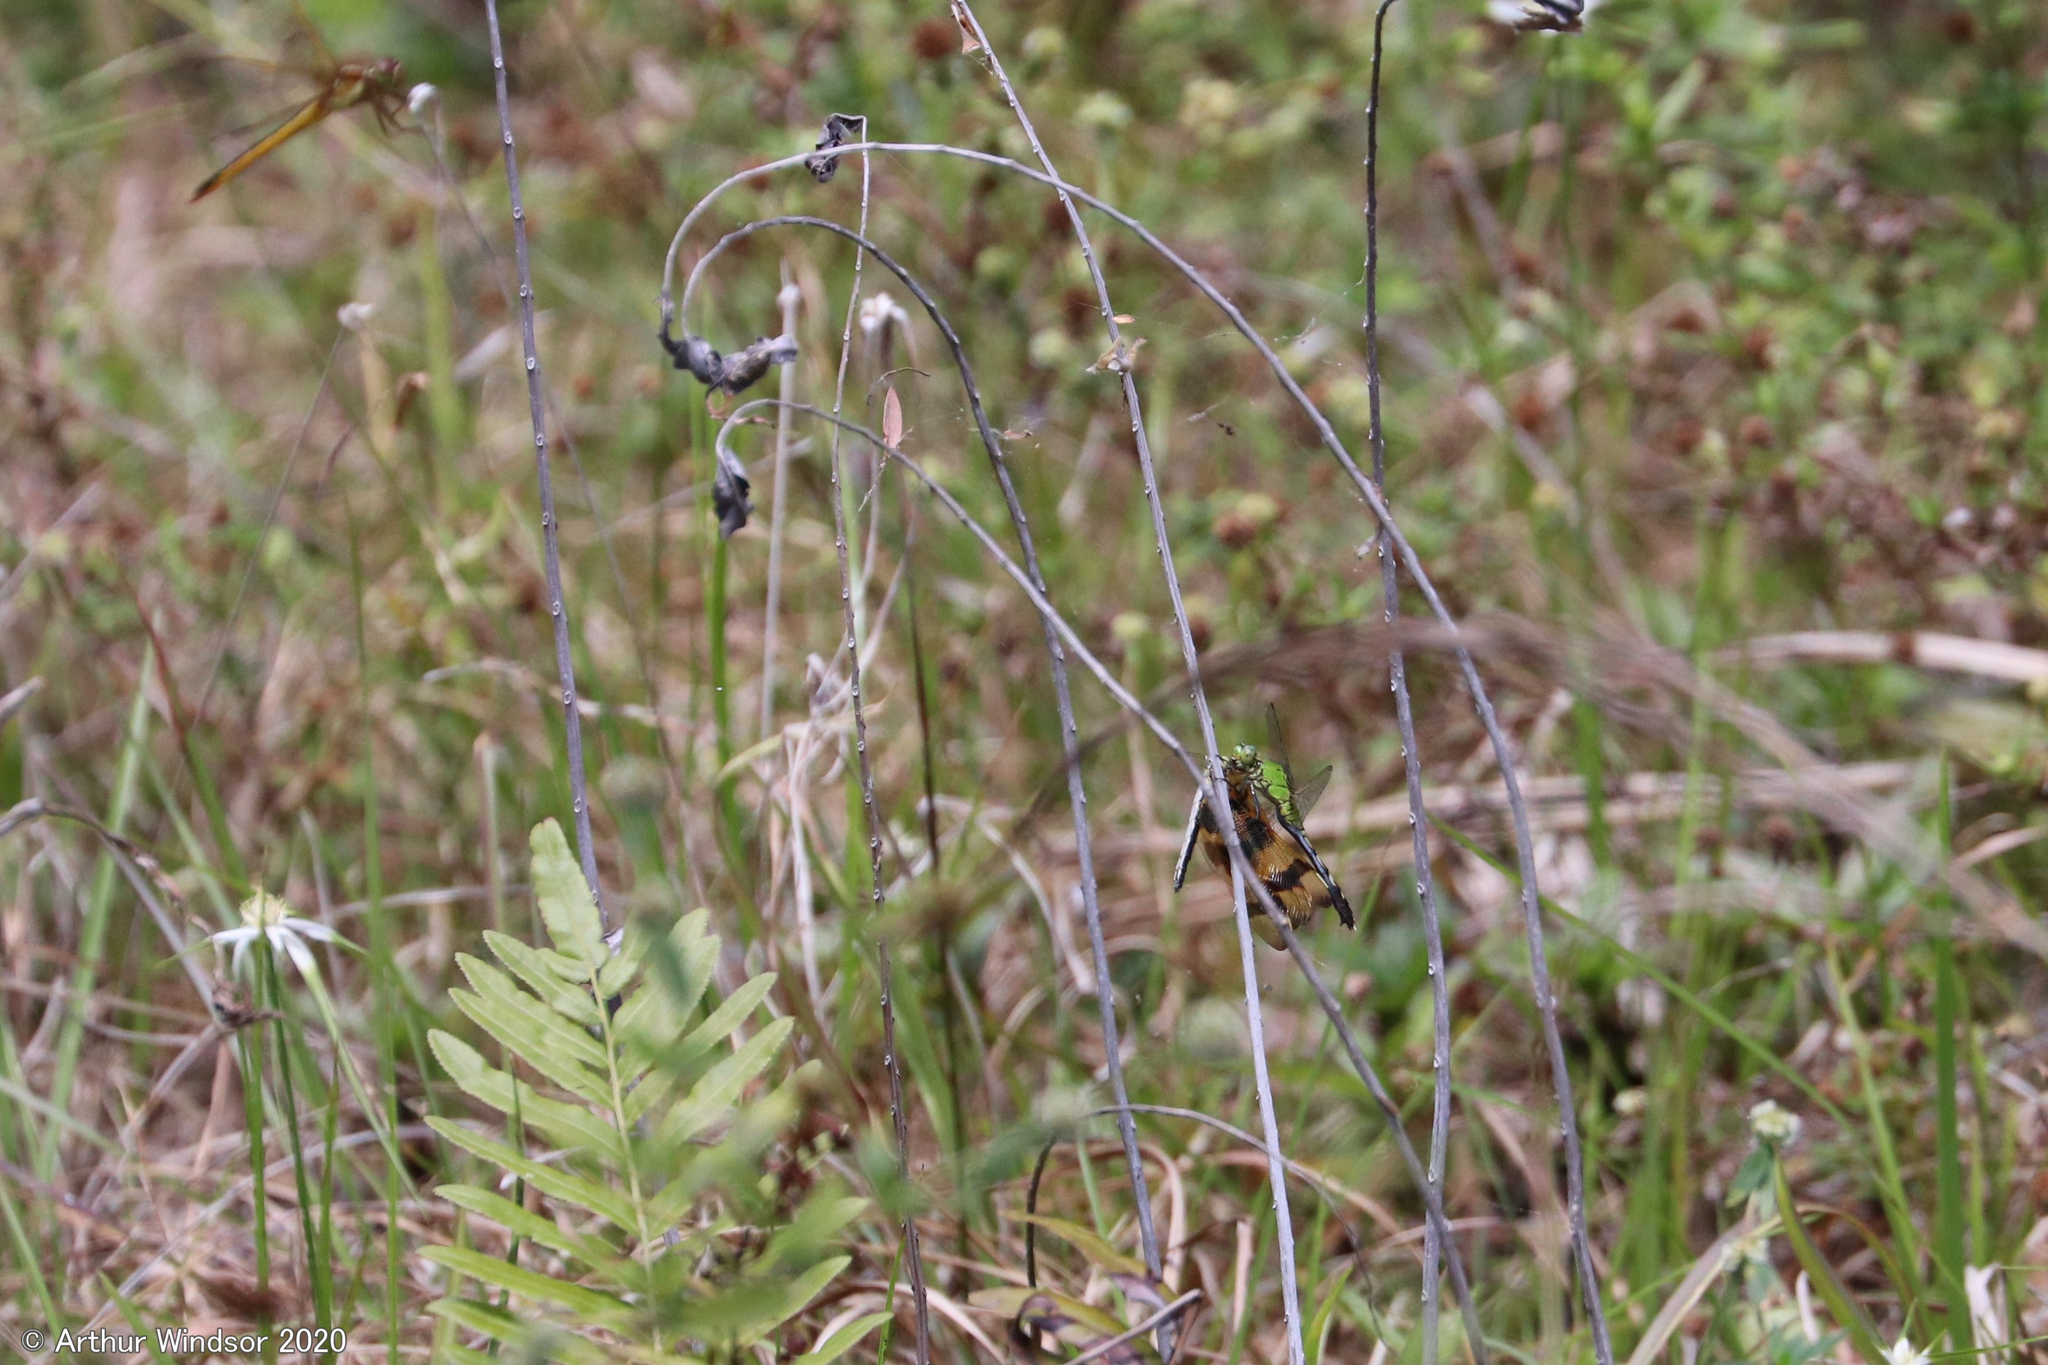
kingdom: Animalia
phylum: Arthropoda
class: Insecta
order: Odonata
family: Libellulidae
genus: Erythemis
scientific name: Erythemis simplicicollis
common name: Eastern pondhawk
